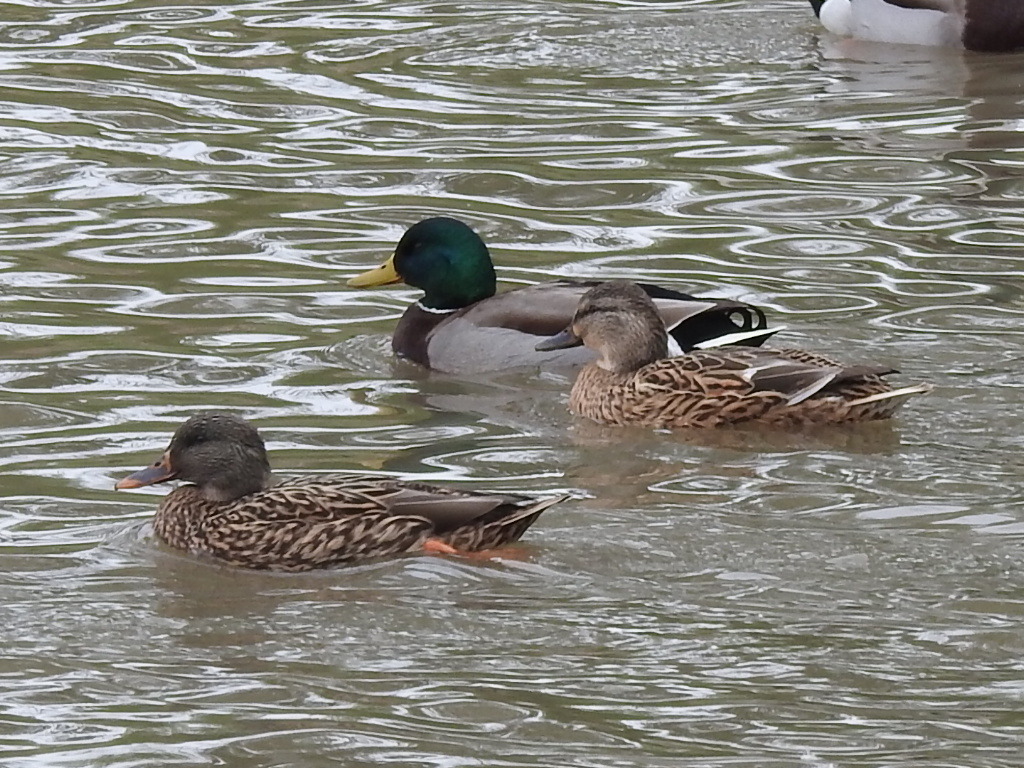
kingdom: Animalia
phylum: Chordata
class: Aves
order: Anseriformes
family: Anatidae
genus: Anas
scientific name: Anas platyrhynchos
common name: Mallard
